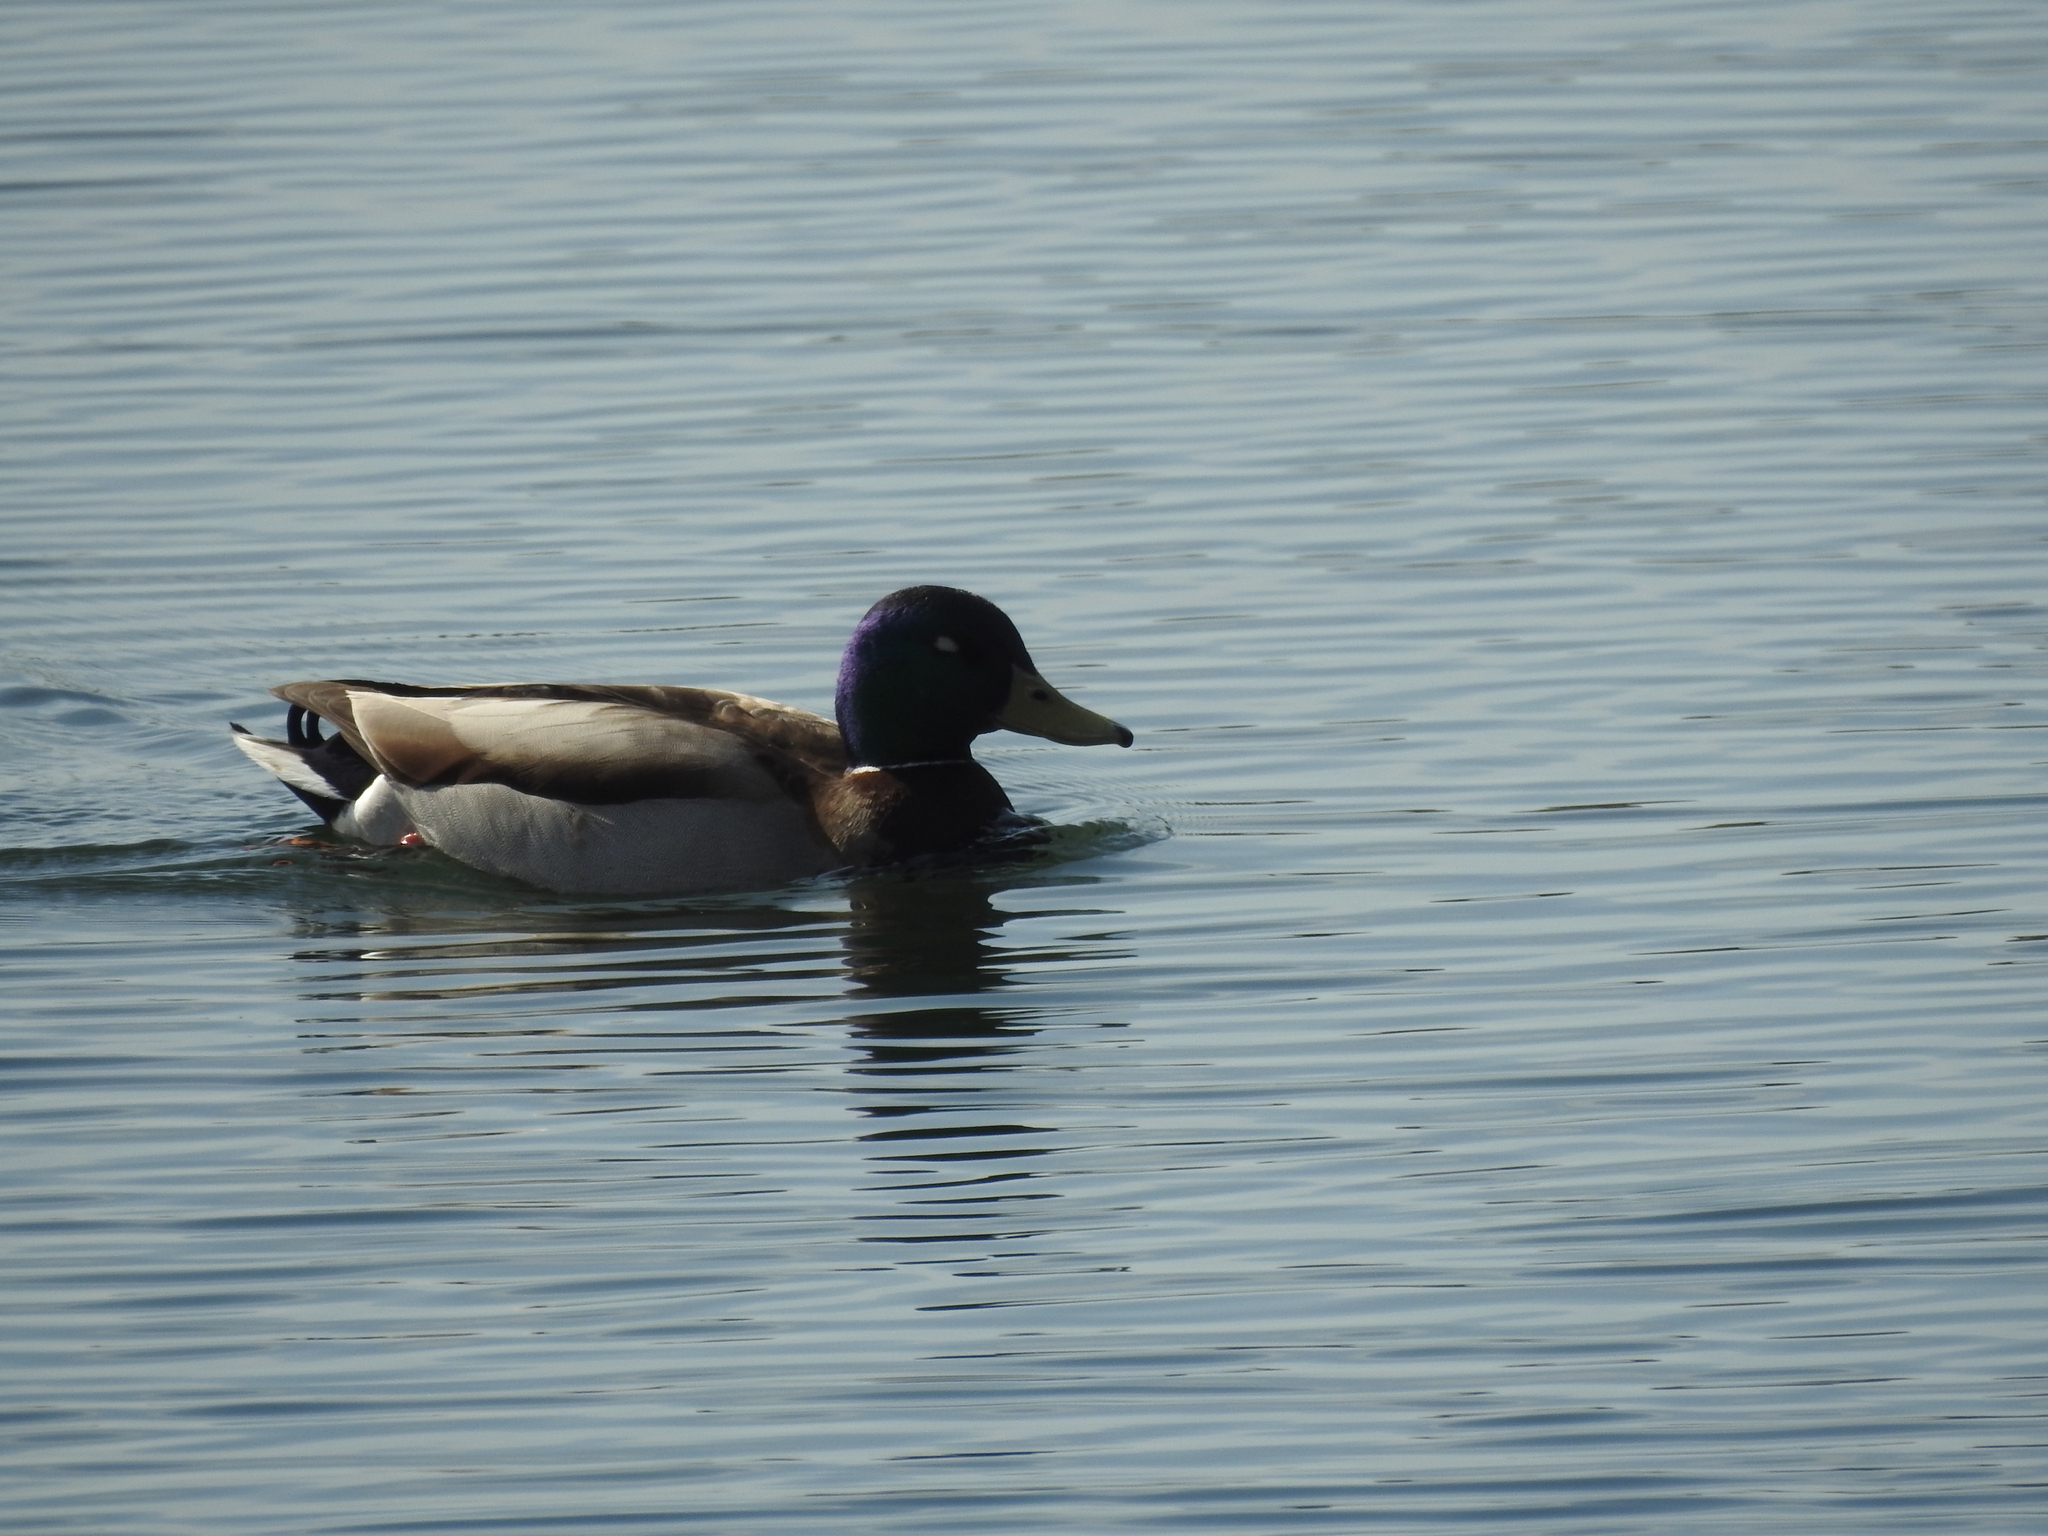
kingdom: Animalia
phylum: Chordata
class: Aves
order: Anseriformes
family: Anatidae
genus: Anas
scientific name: Anas platyrhynchos
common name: Mallard
